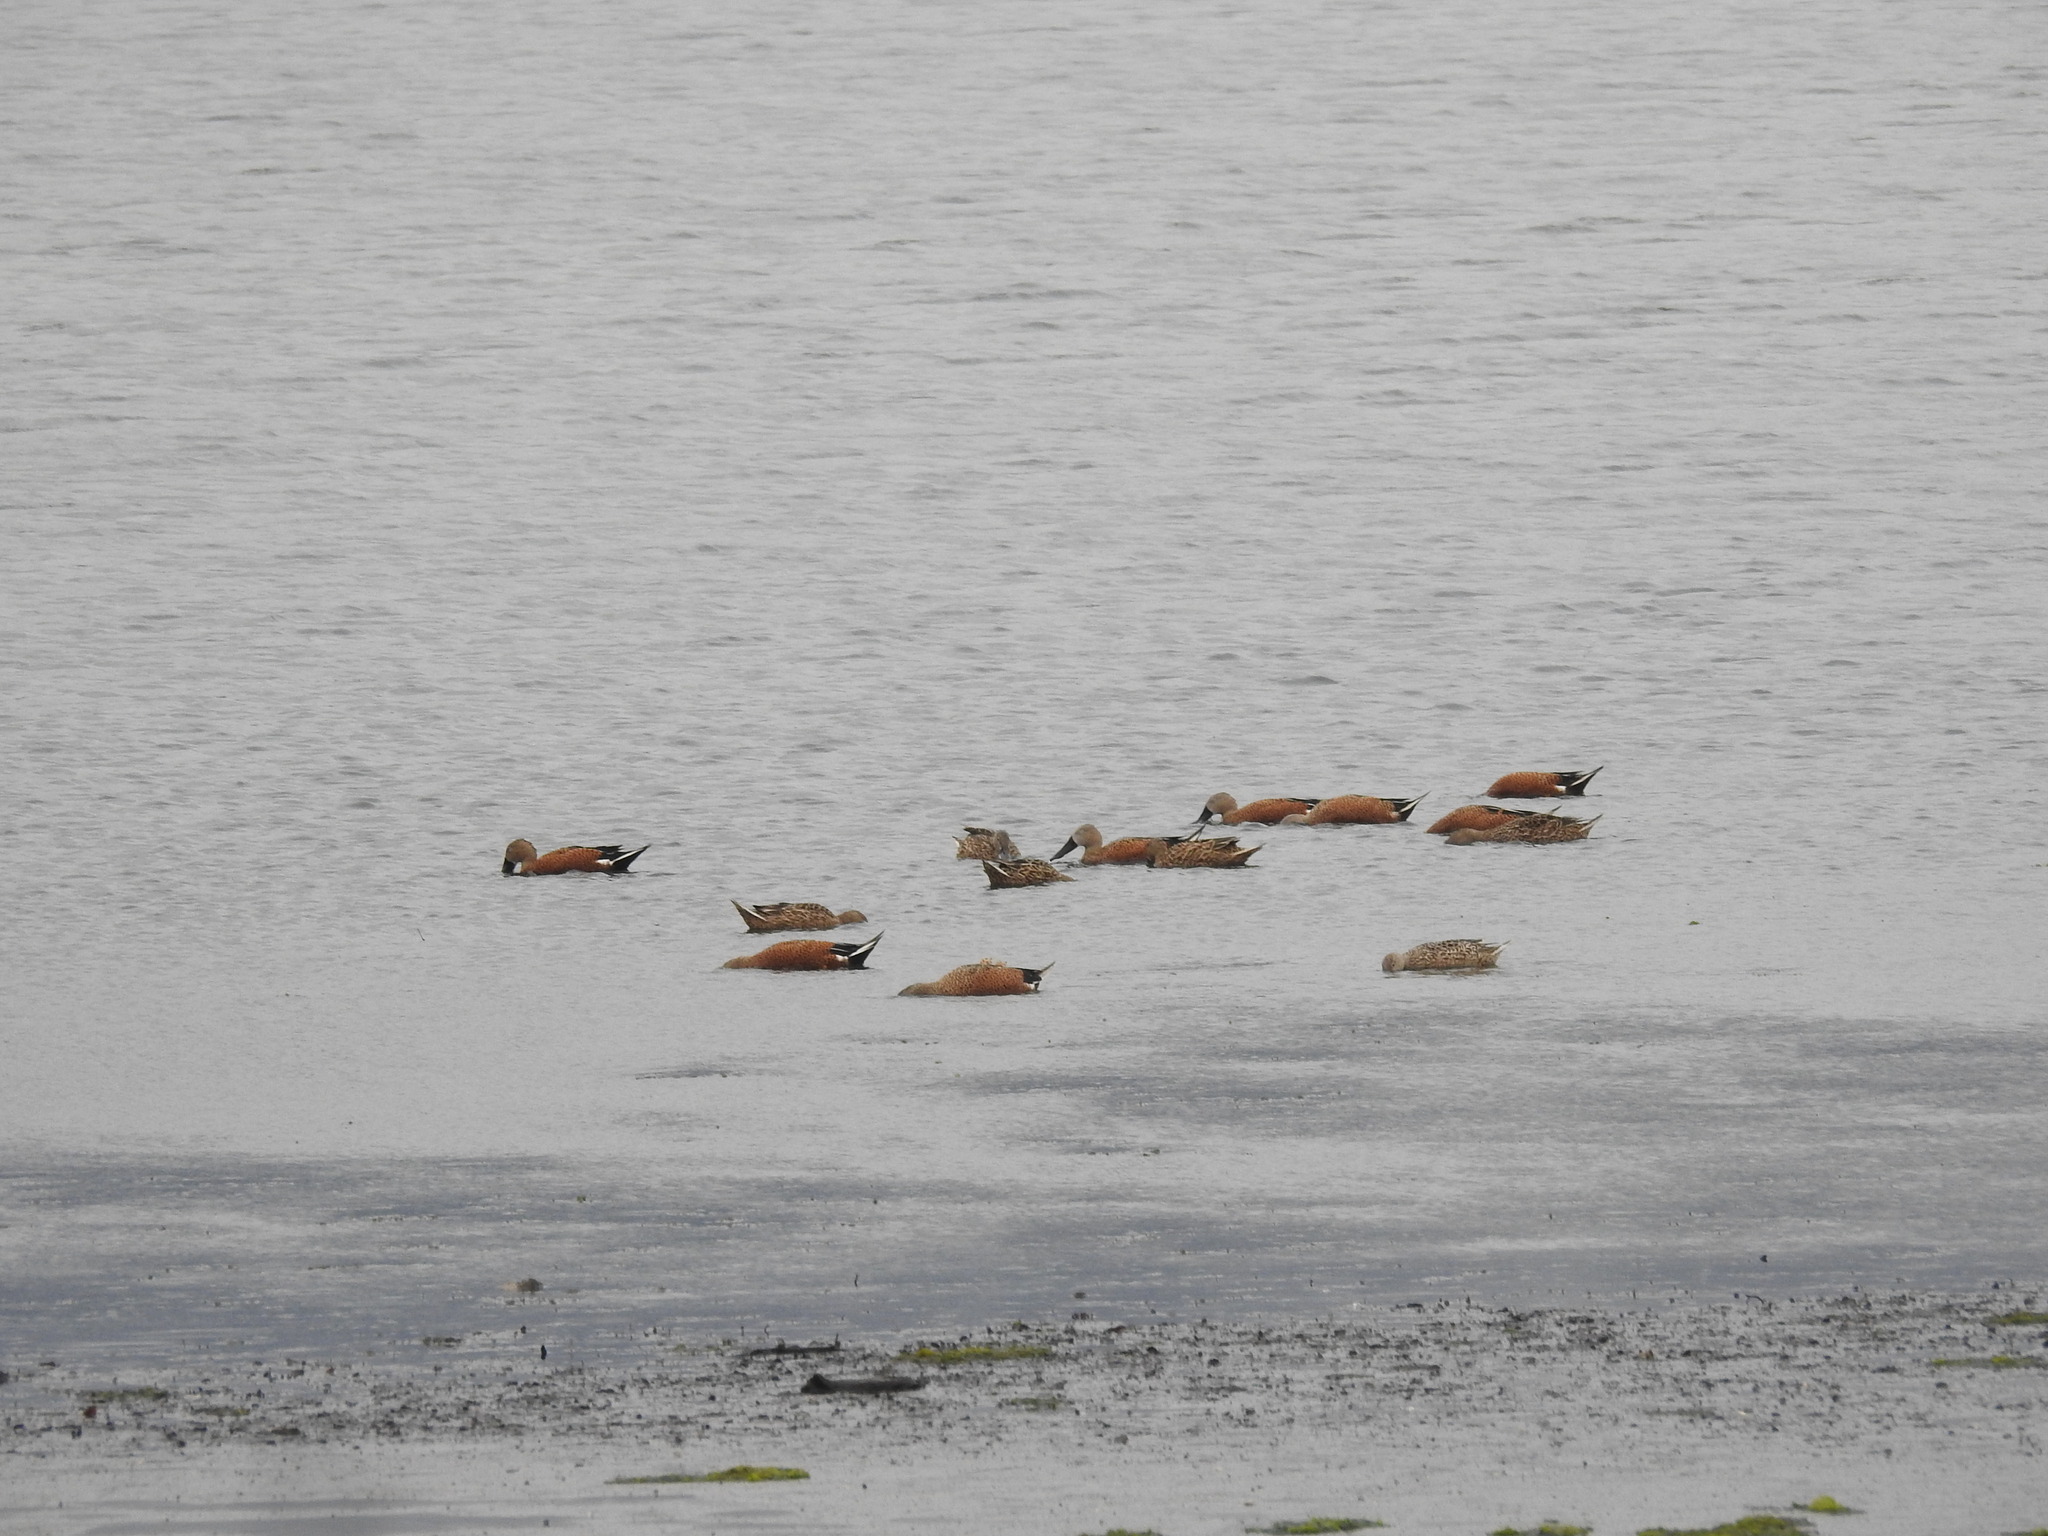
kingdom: Animalia
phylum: Chordata
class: Aves
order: Anseriformes
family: Anatidae
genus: Spatula
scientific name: Spatula platalea
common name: Red shoveler
